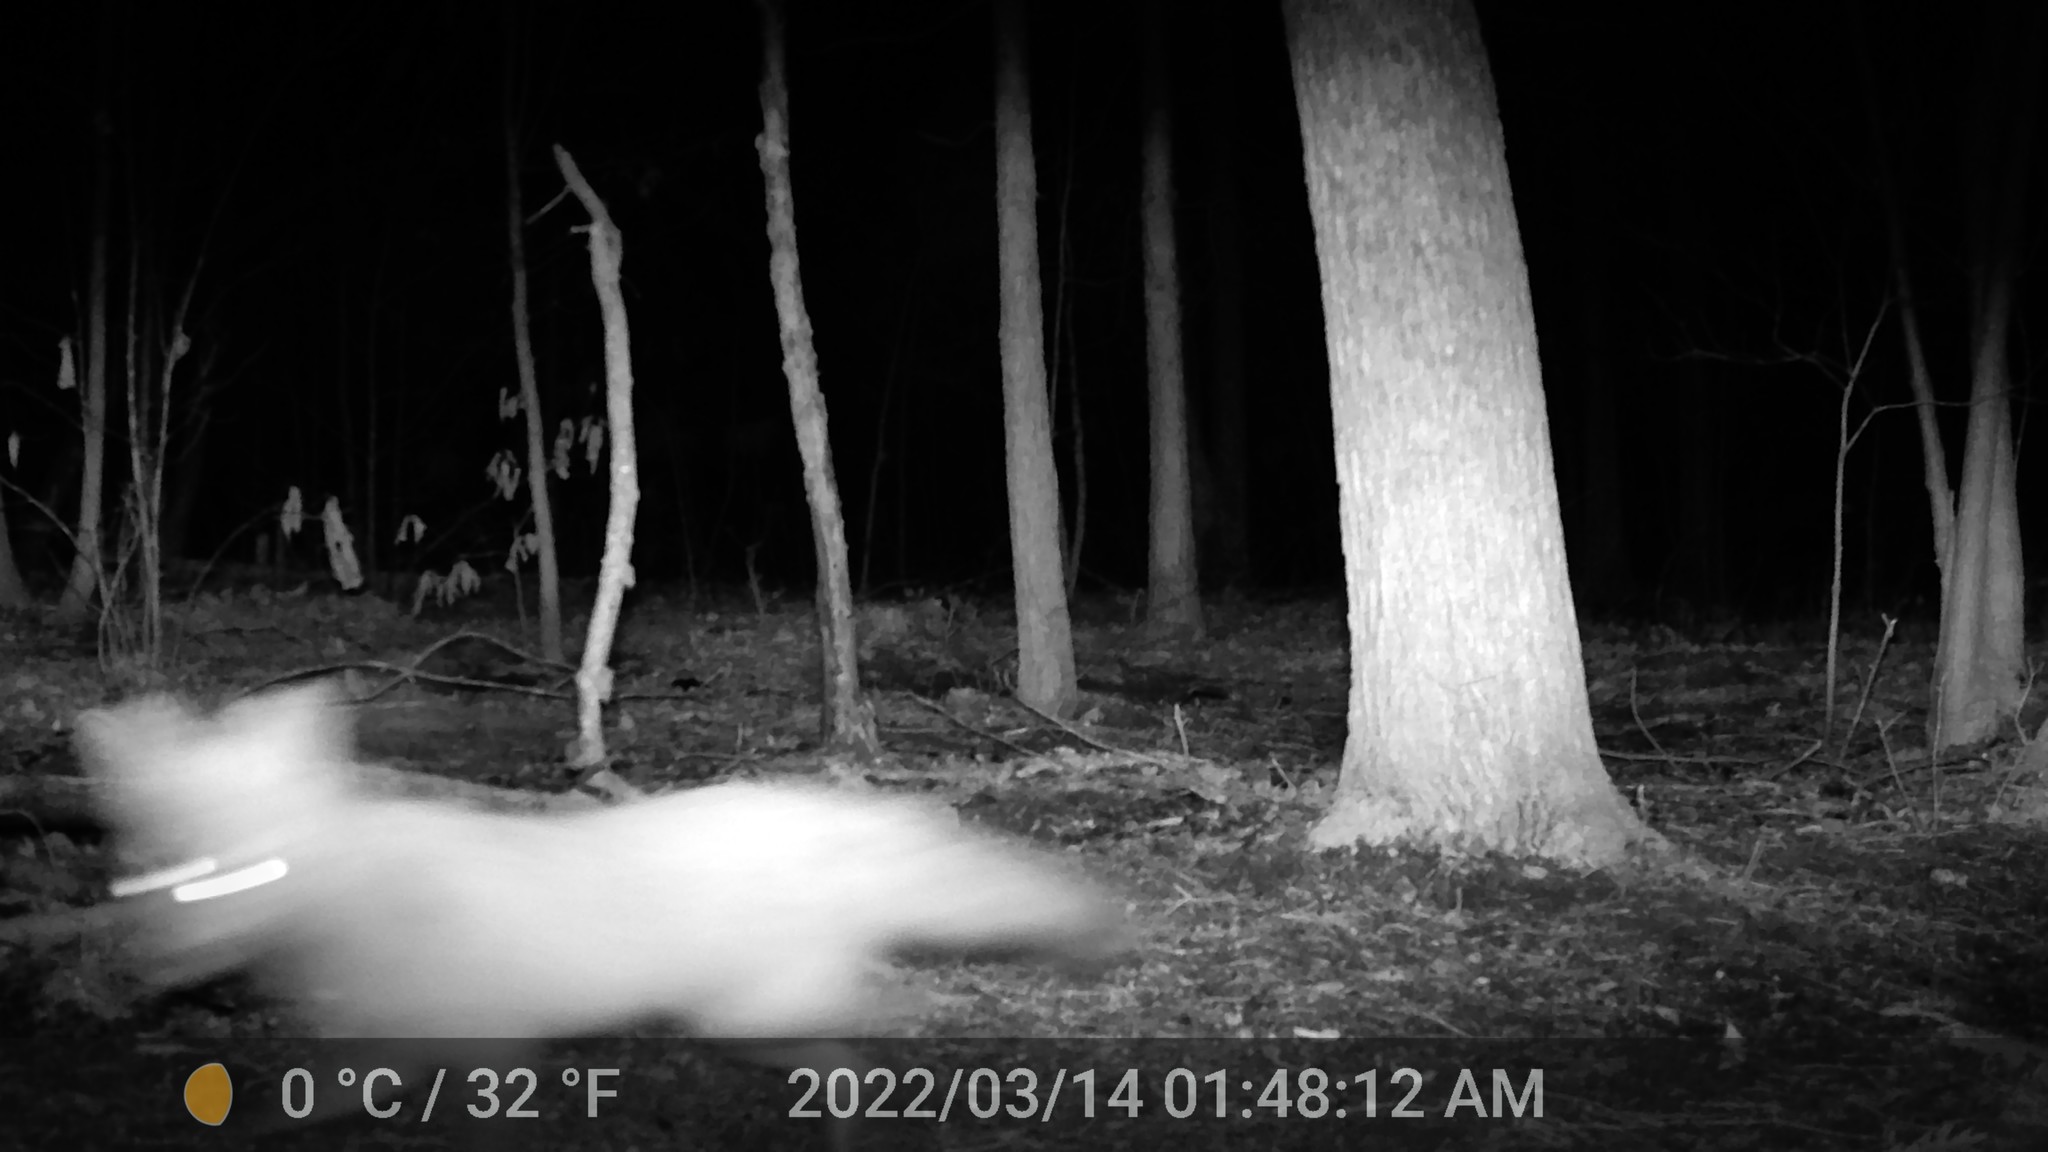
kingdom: Animalia
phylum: Chordata
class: Mammalia
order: Carnivora
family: Canidae
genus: Vulpes
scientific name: Vulpes vulpes
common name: Red fox
